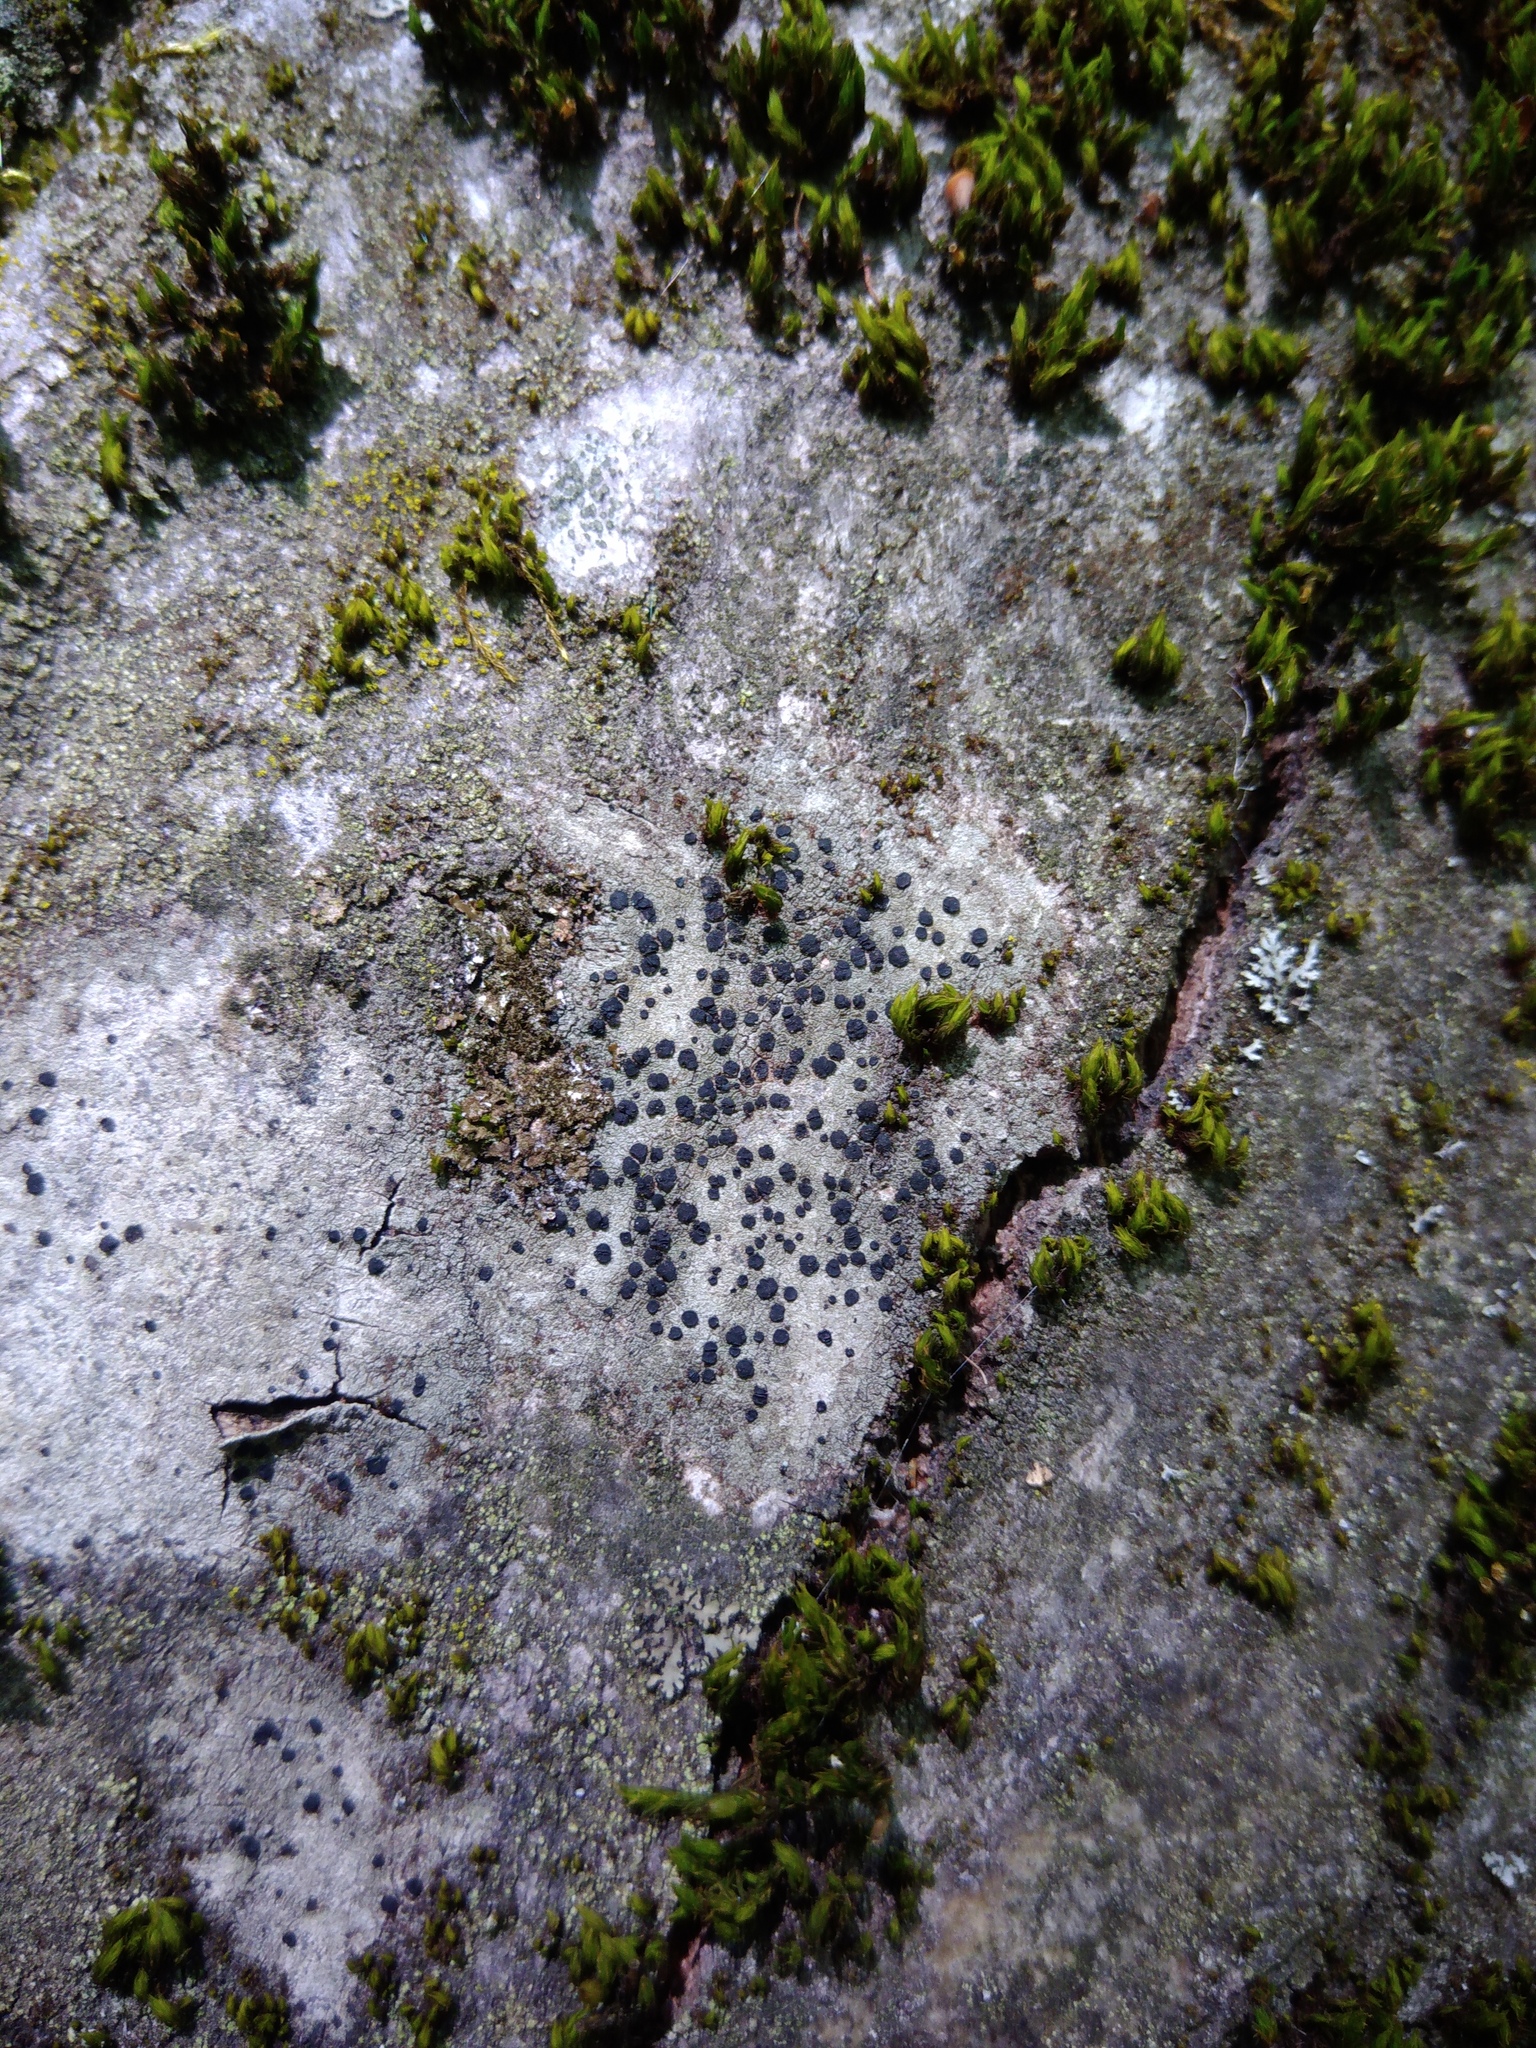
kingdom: Fungi
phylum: Ascomycota
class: Lecanoromycetes
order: Lecanorales
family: Lecanoraceae
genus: Lecidella
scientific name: Lecidella elaeochroma
